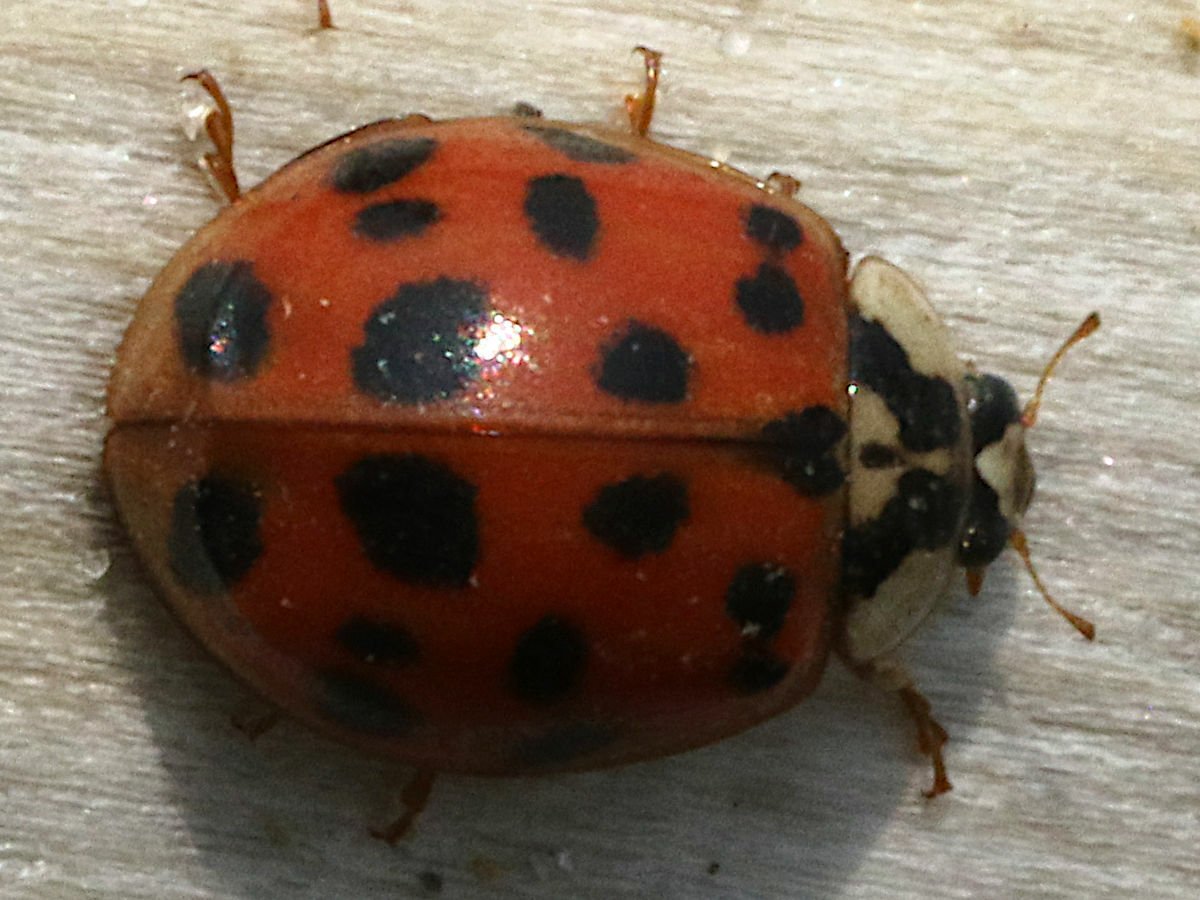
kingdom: Animalia
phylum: Arthropoda
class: Insecta
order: Coleoptera
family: Coccinellidae
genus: Harmonia
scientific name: Harmonia axyridis
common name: Harlequin ladybird
